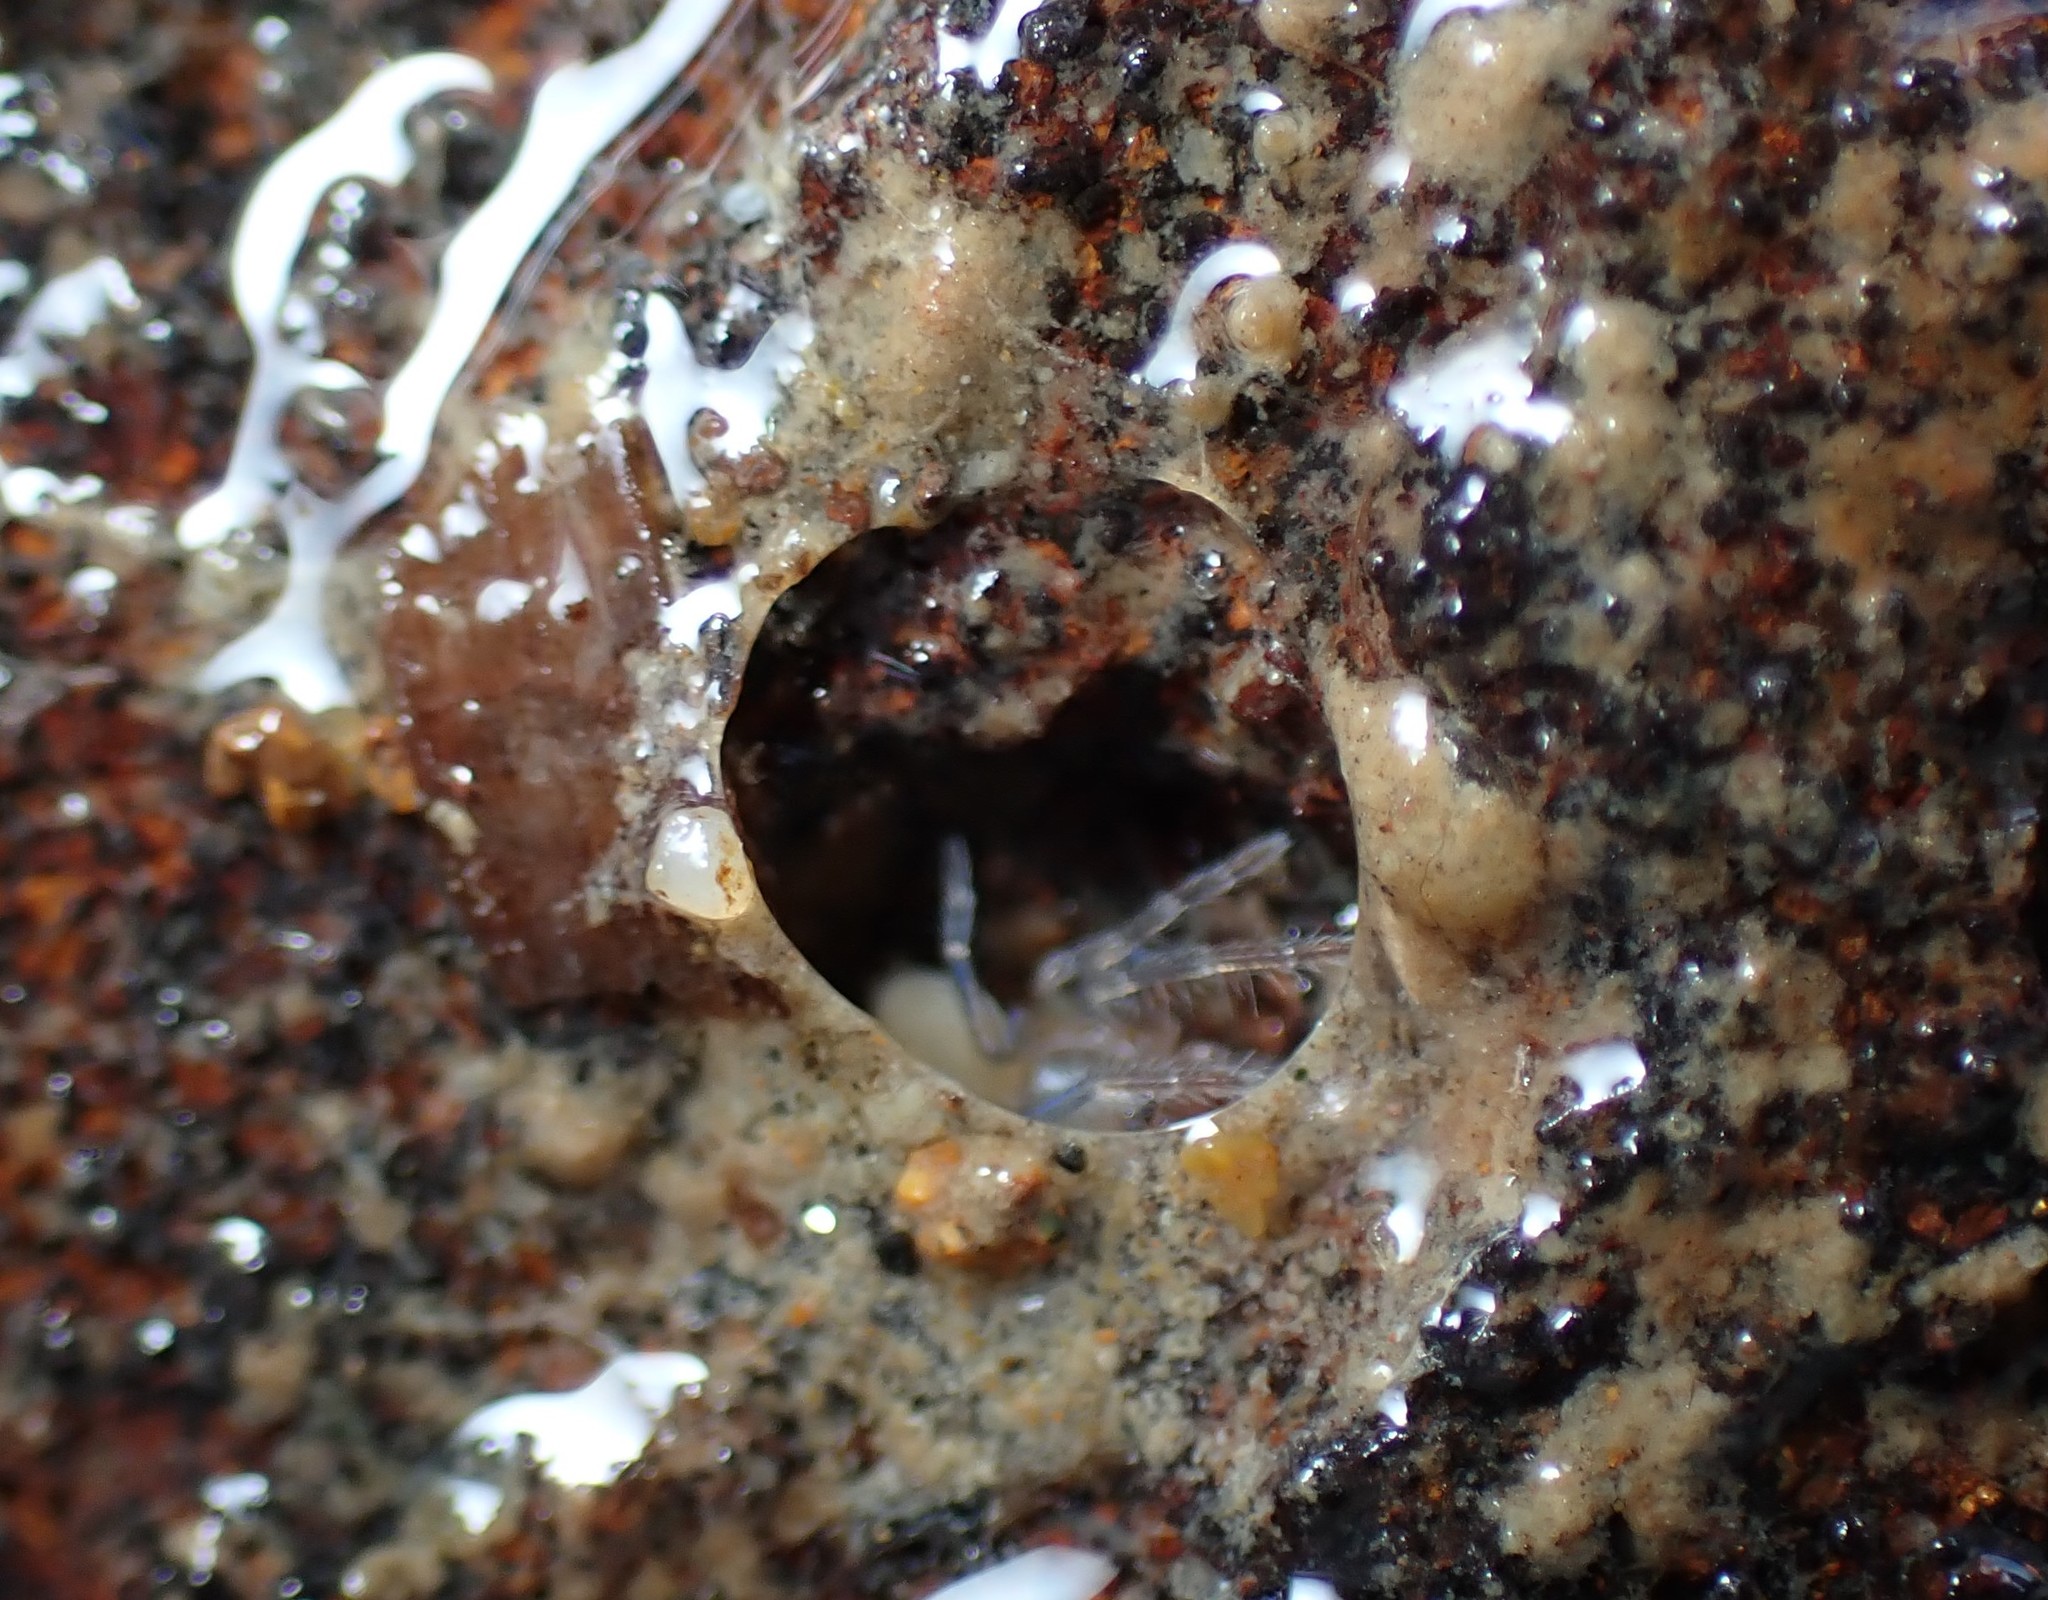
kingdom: Animalia
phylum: Arthropoda
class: Arachnida
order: Araneae
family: Desidae
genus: Desis
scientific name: Desis marina
